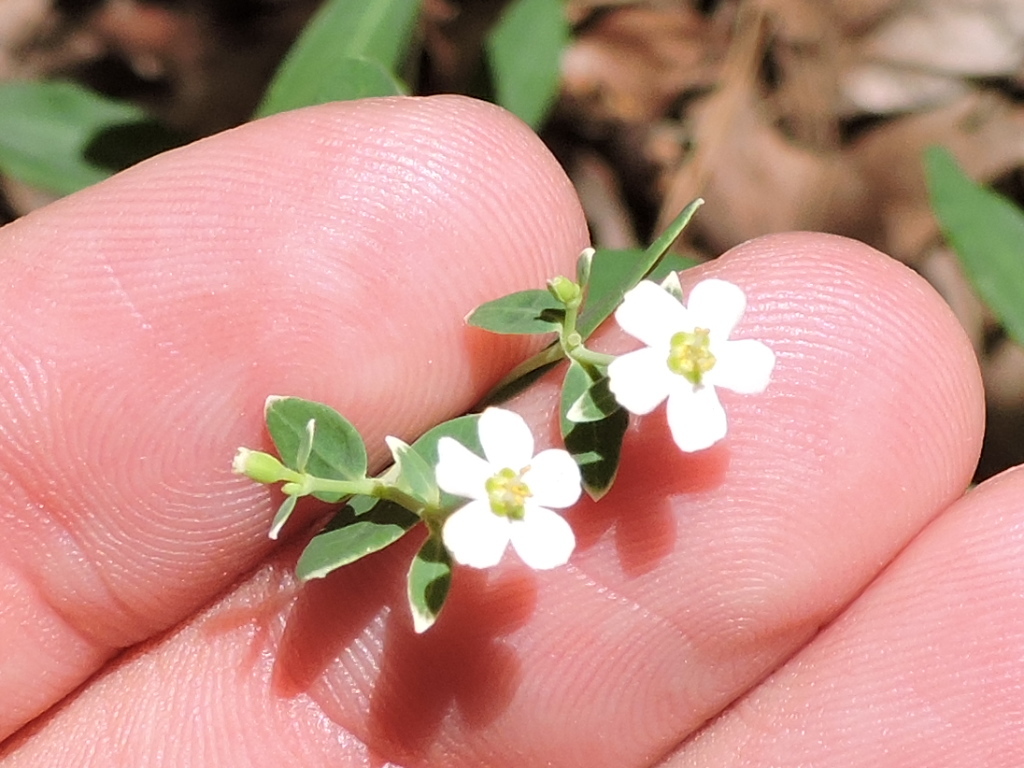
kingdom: Plantae
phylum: Tracheophyta
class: Magnoliopsida
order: Malpighiales
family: Euphorbiaceae
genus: Euphorbia
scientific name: Euphorbia corollata
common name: Flowering spurge
